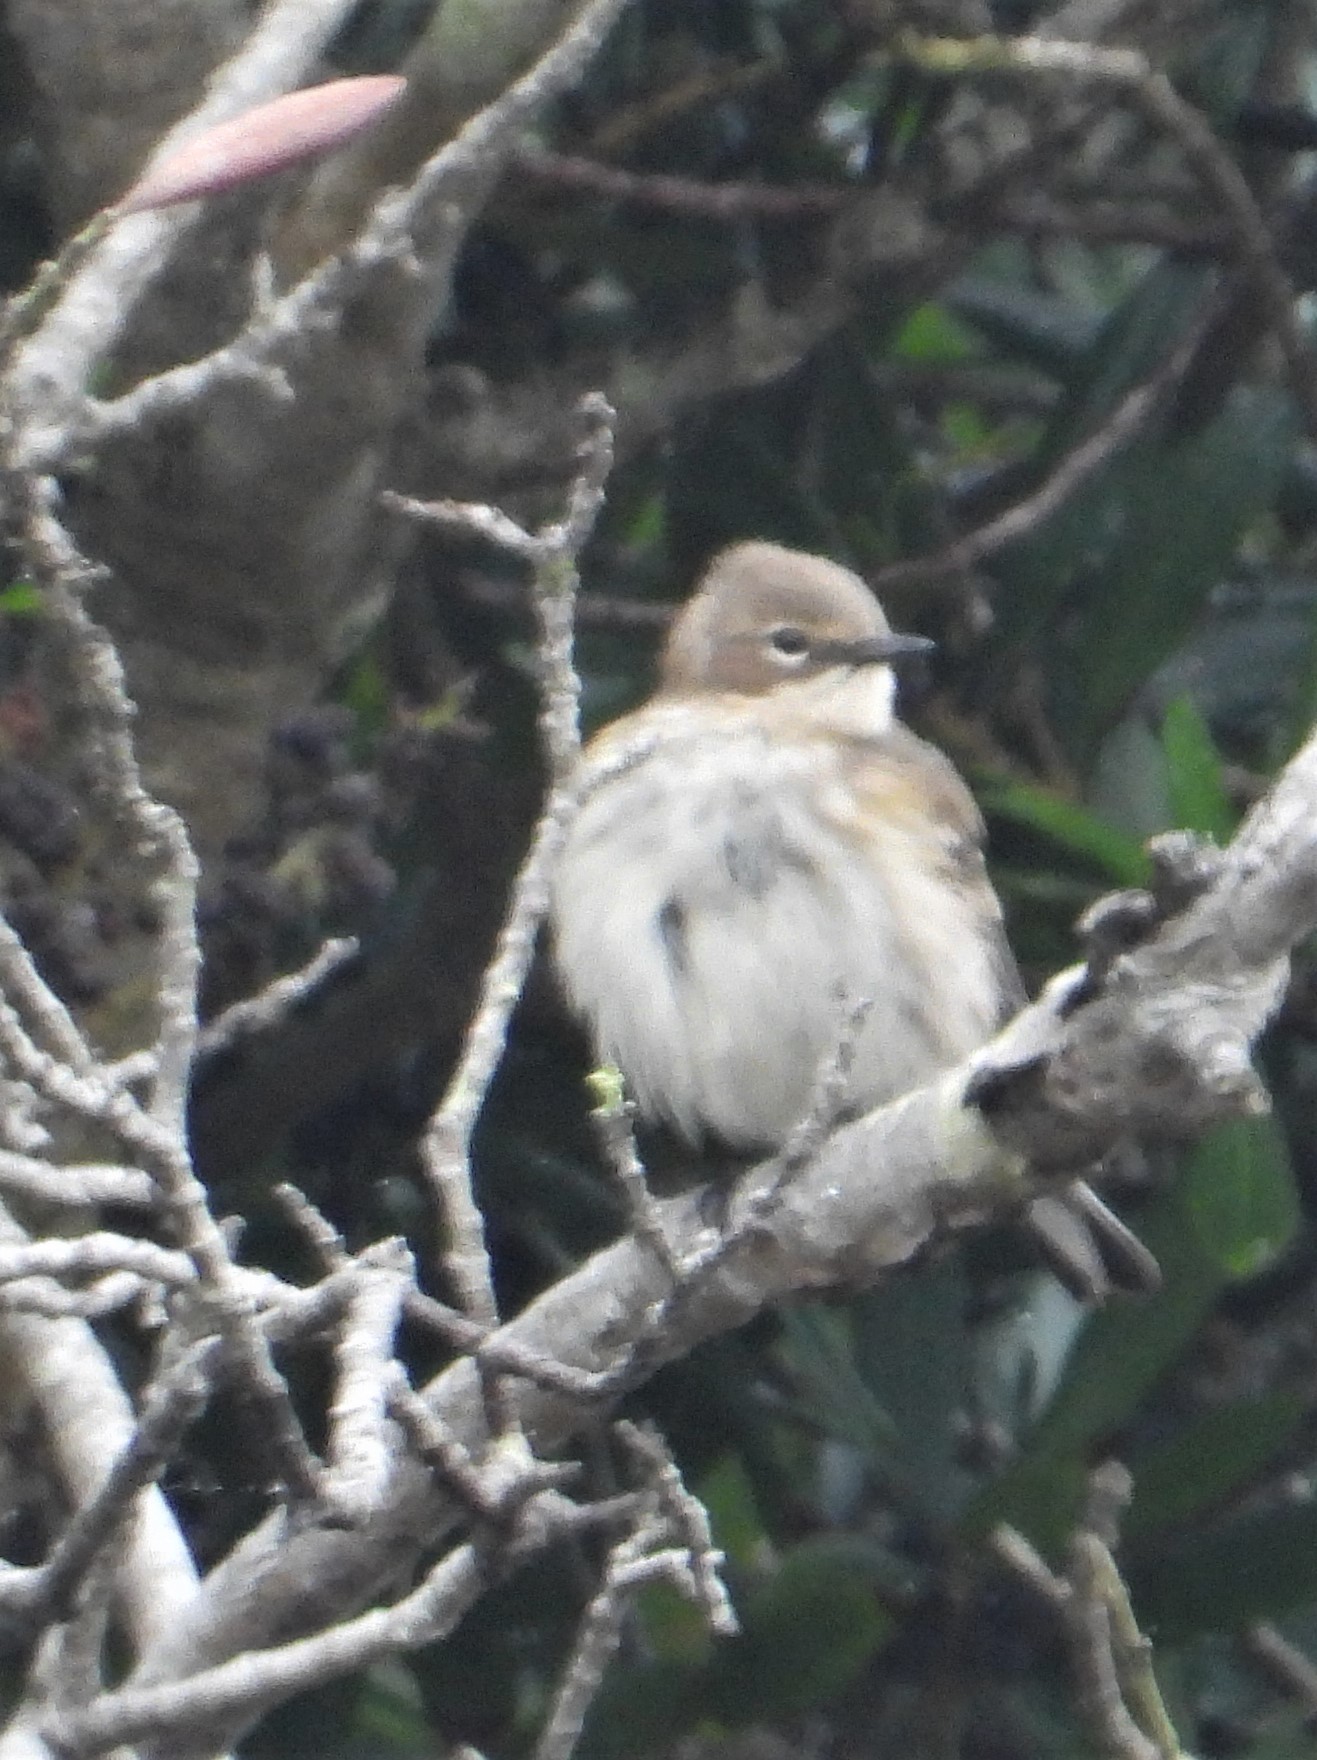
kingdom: Animalia
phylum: Chordata
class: Aves
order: Passeriformes
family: Parulidae
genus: Setophaga
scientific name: Setophaga coronata
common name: Myrtle warbler
